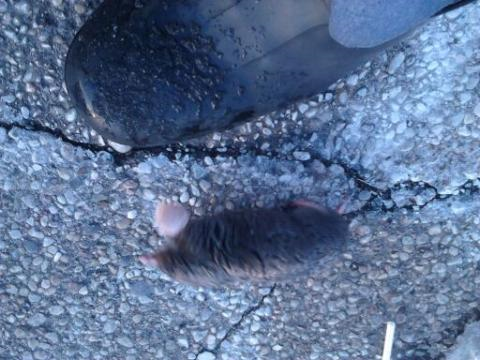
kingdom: Animalia
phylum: Chordata
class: Mammalia
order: Soricomorpha
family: Talpidae
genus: Scalopus
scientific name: Scalopus aquaticus
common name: Eastern mole
